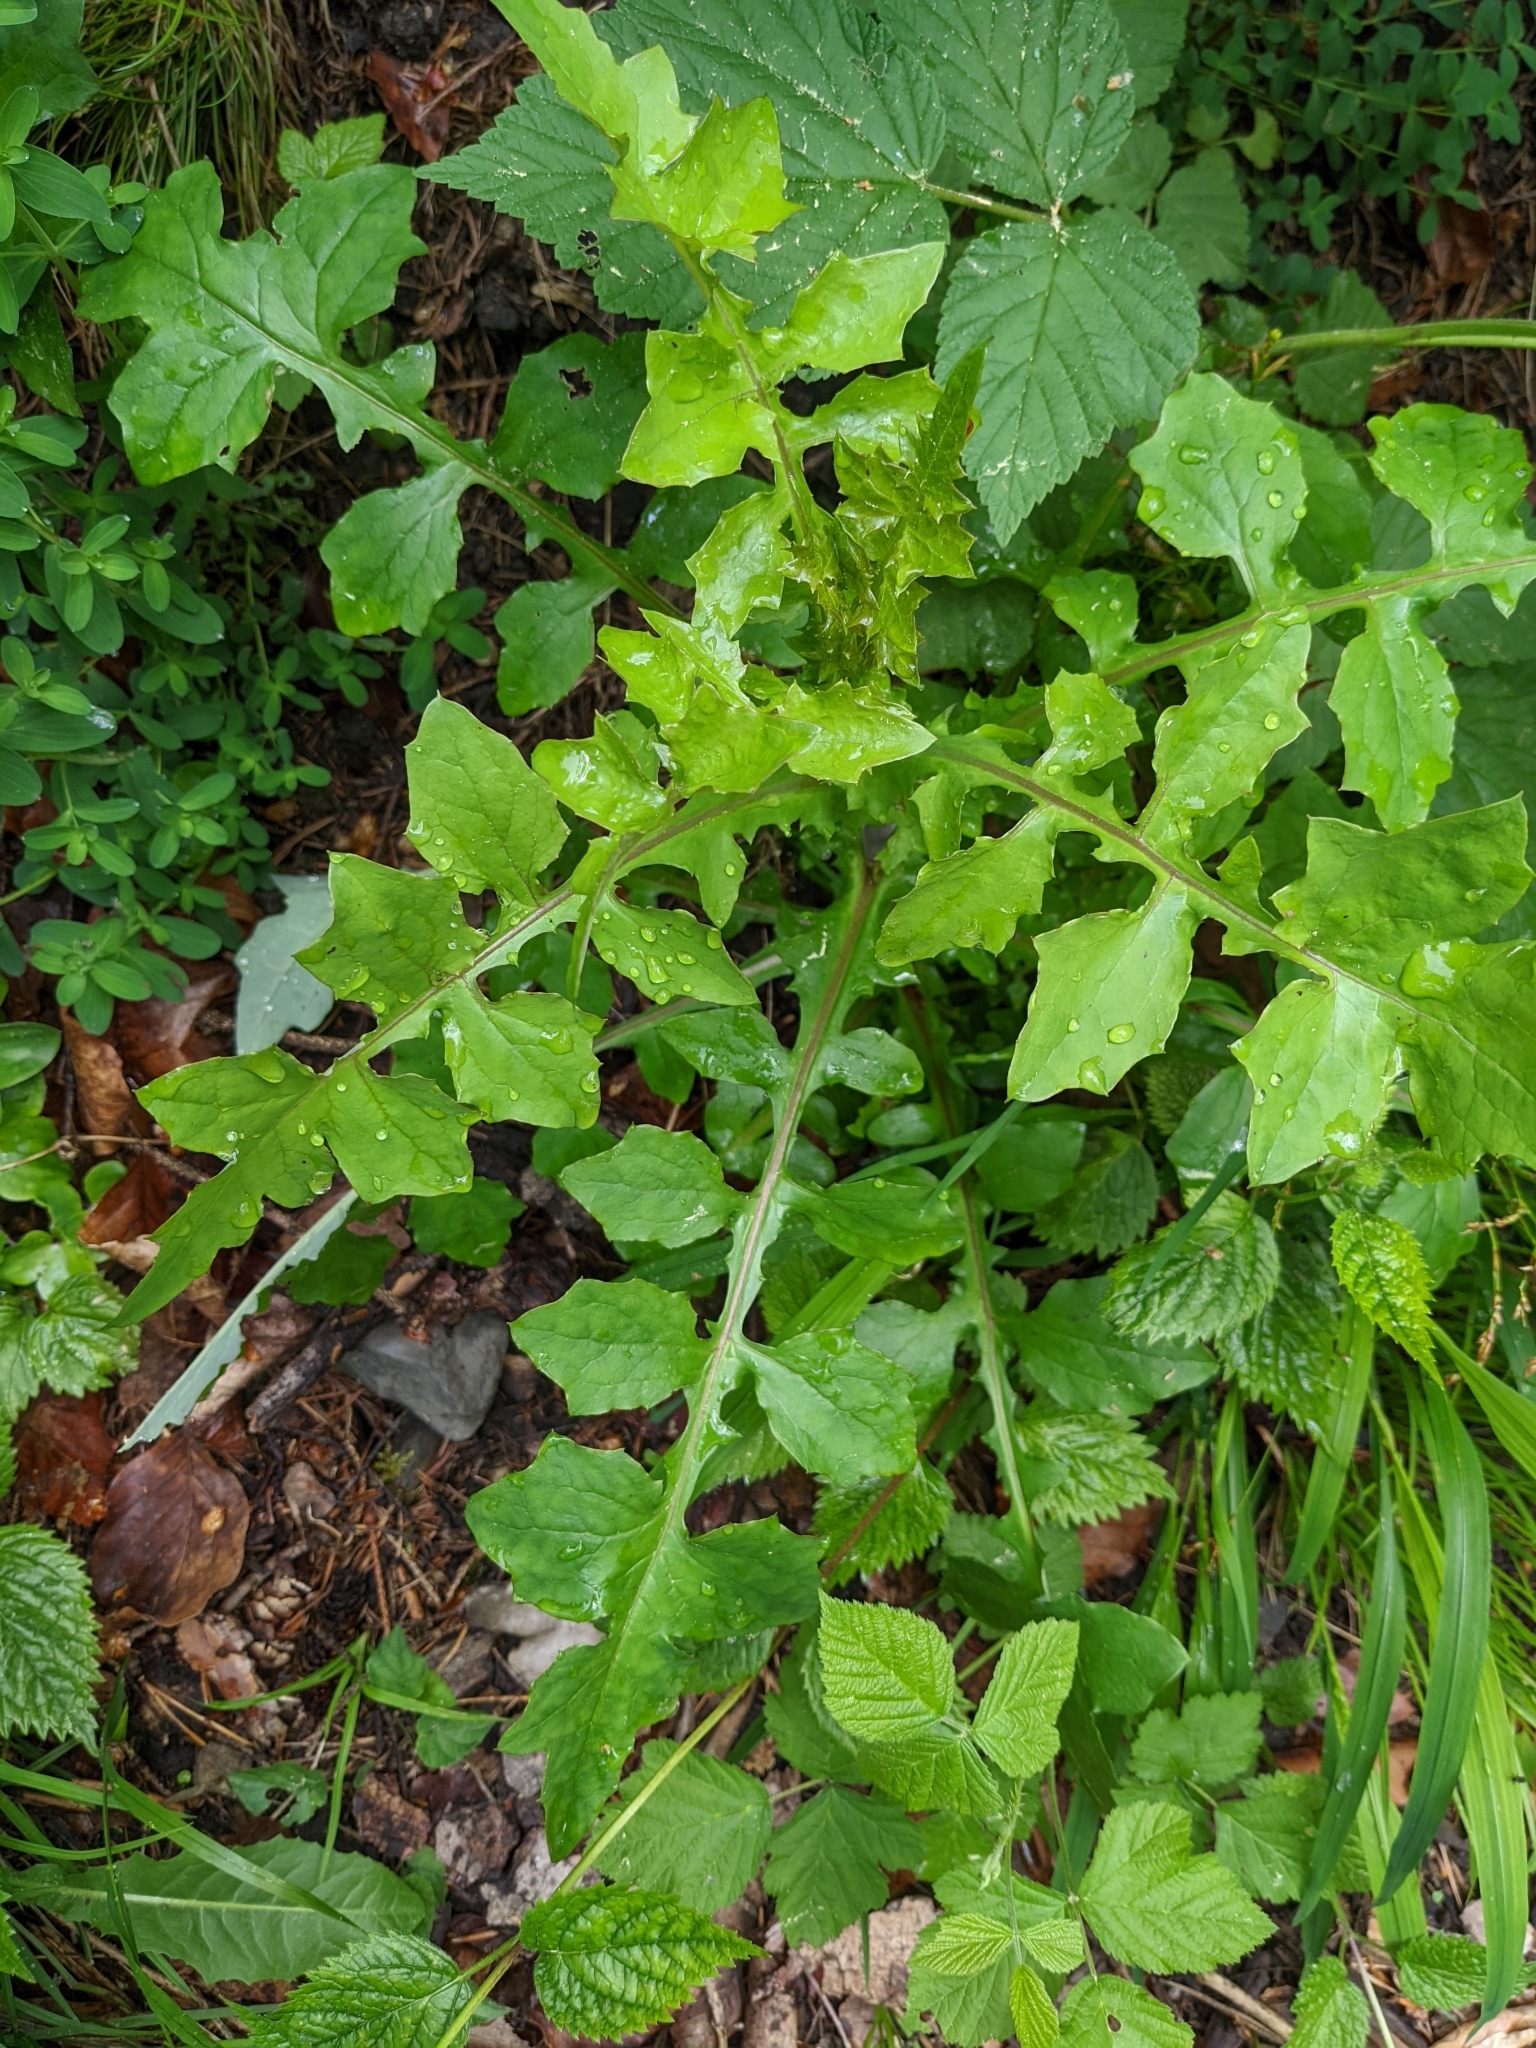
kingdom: Plantae
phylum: Tracheophyta
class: Magnoliopsida
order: Asterales
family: Asteraceae
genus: Mycelis
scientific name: Mycelis muralis
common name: Wall lettuce
